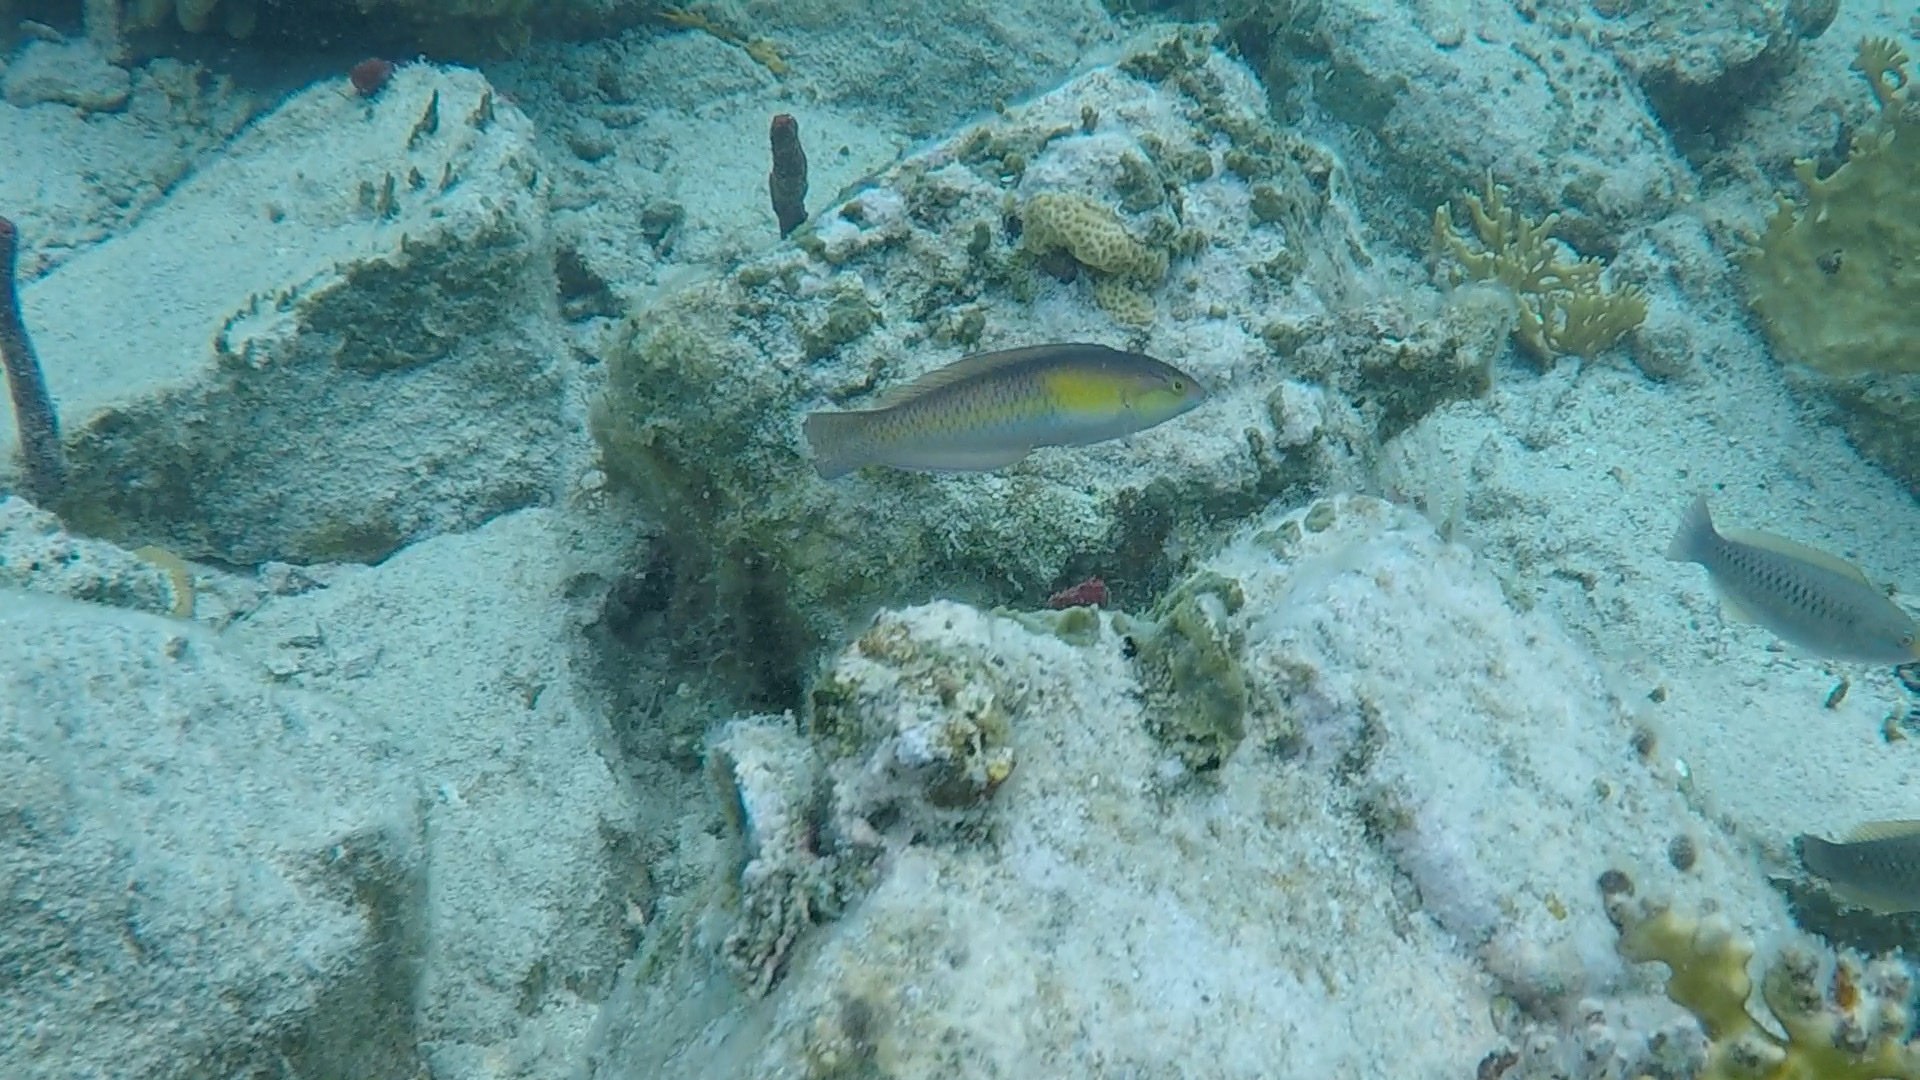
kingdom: Animalia
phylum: Chordata
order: Perciformes
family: Labridae
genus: Halichoeres
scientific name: Halichoeres garnoti
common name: Yellowhead wrasse
